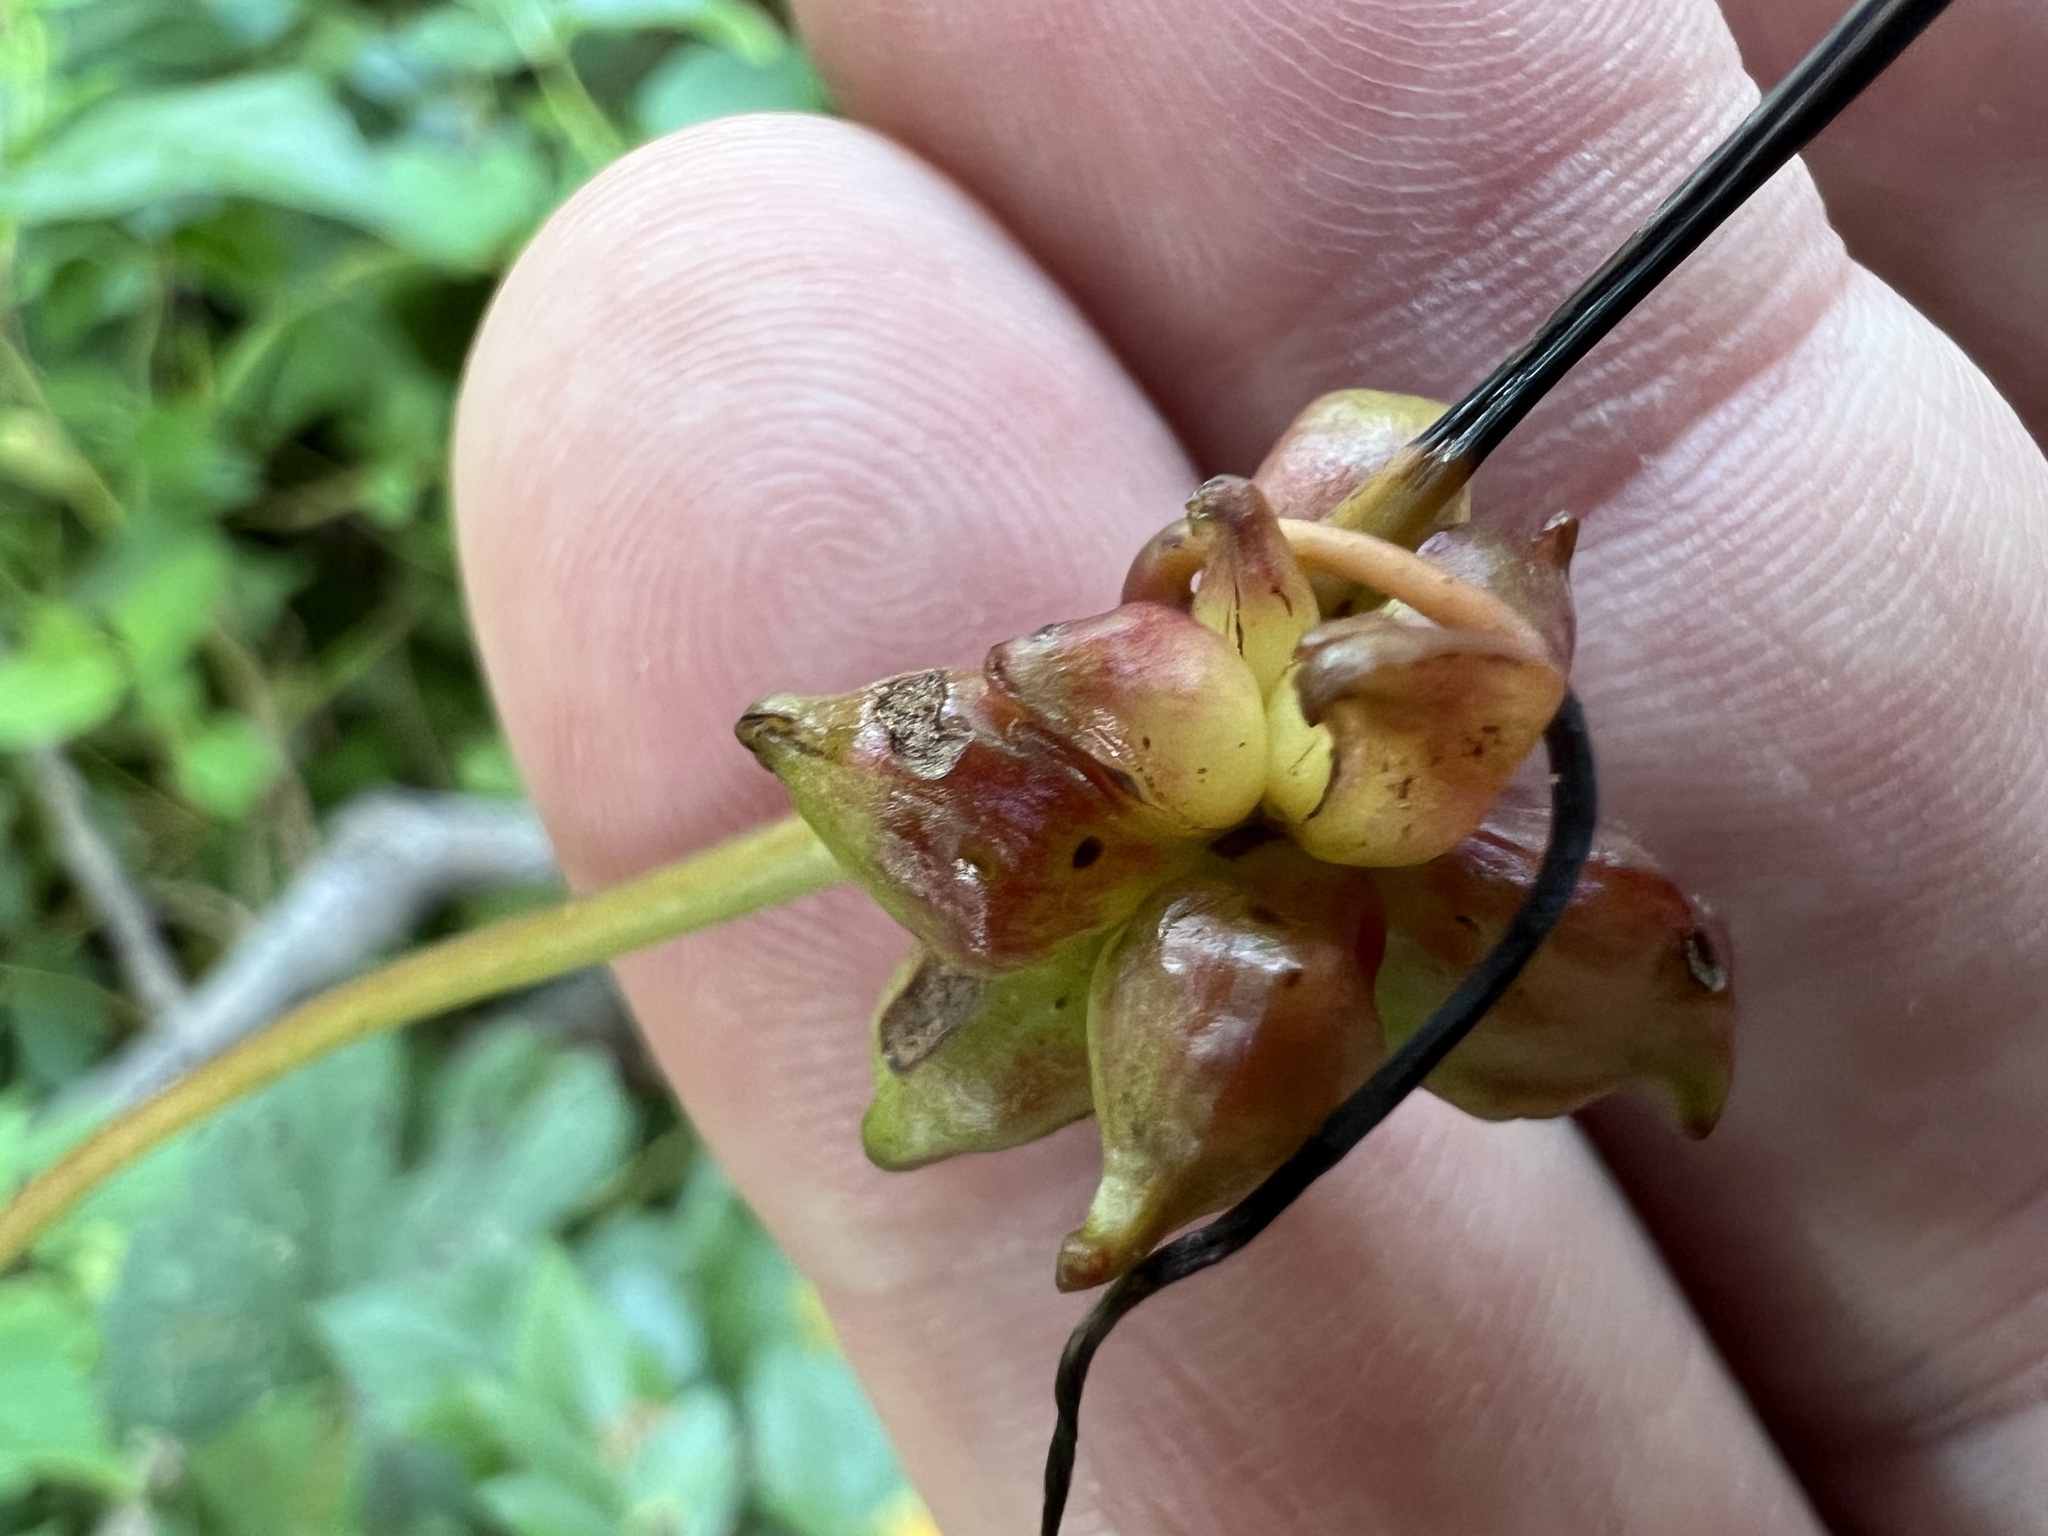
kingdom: Animalia
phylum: Arthropoda
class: Insecta
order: Diptera
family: Cecidomyiidae
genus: Ampelomyia
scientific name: Ampelomyia vitiscoryloides
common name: Grape filbert gall
